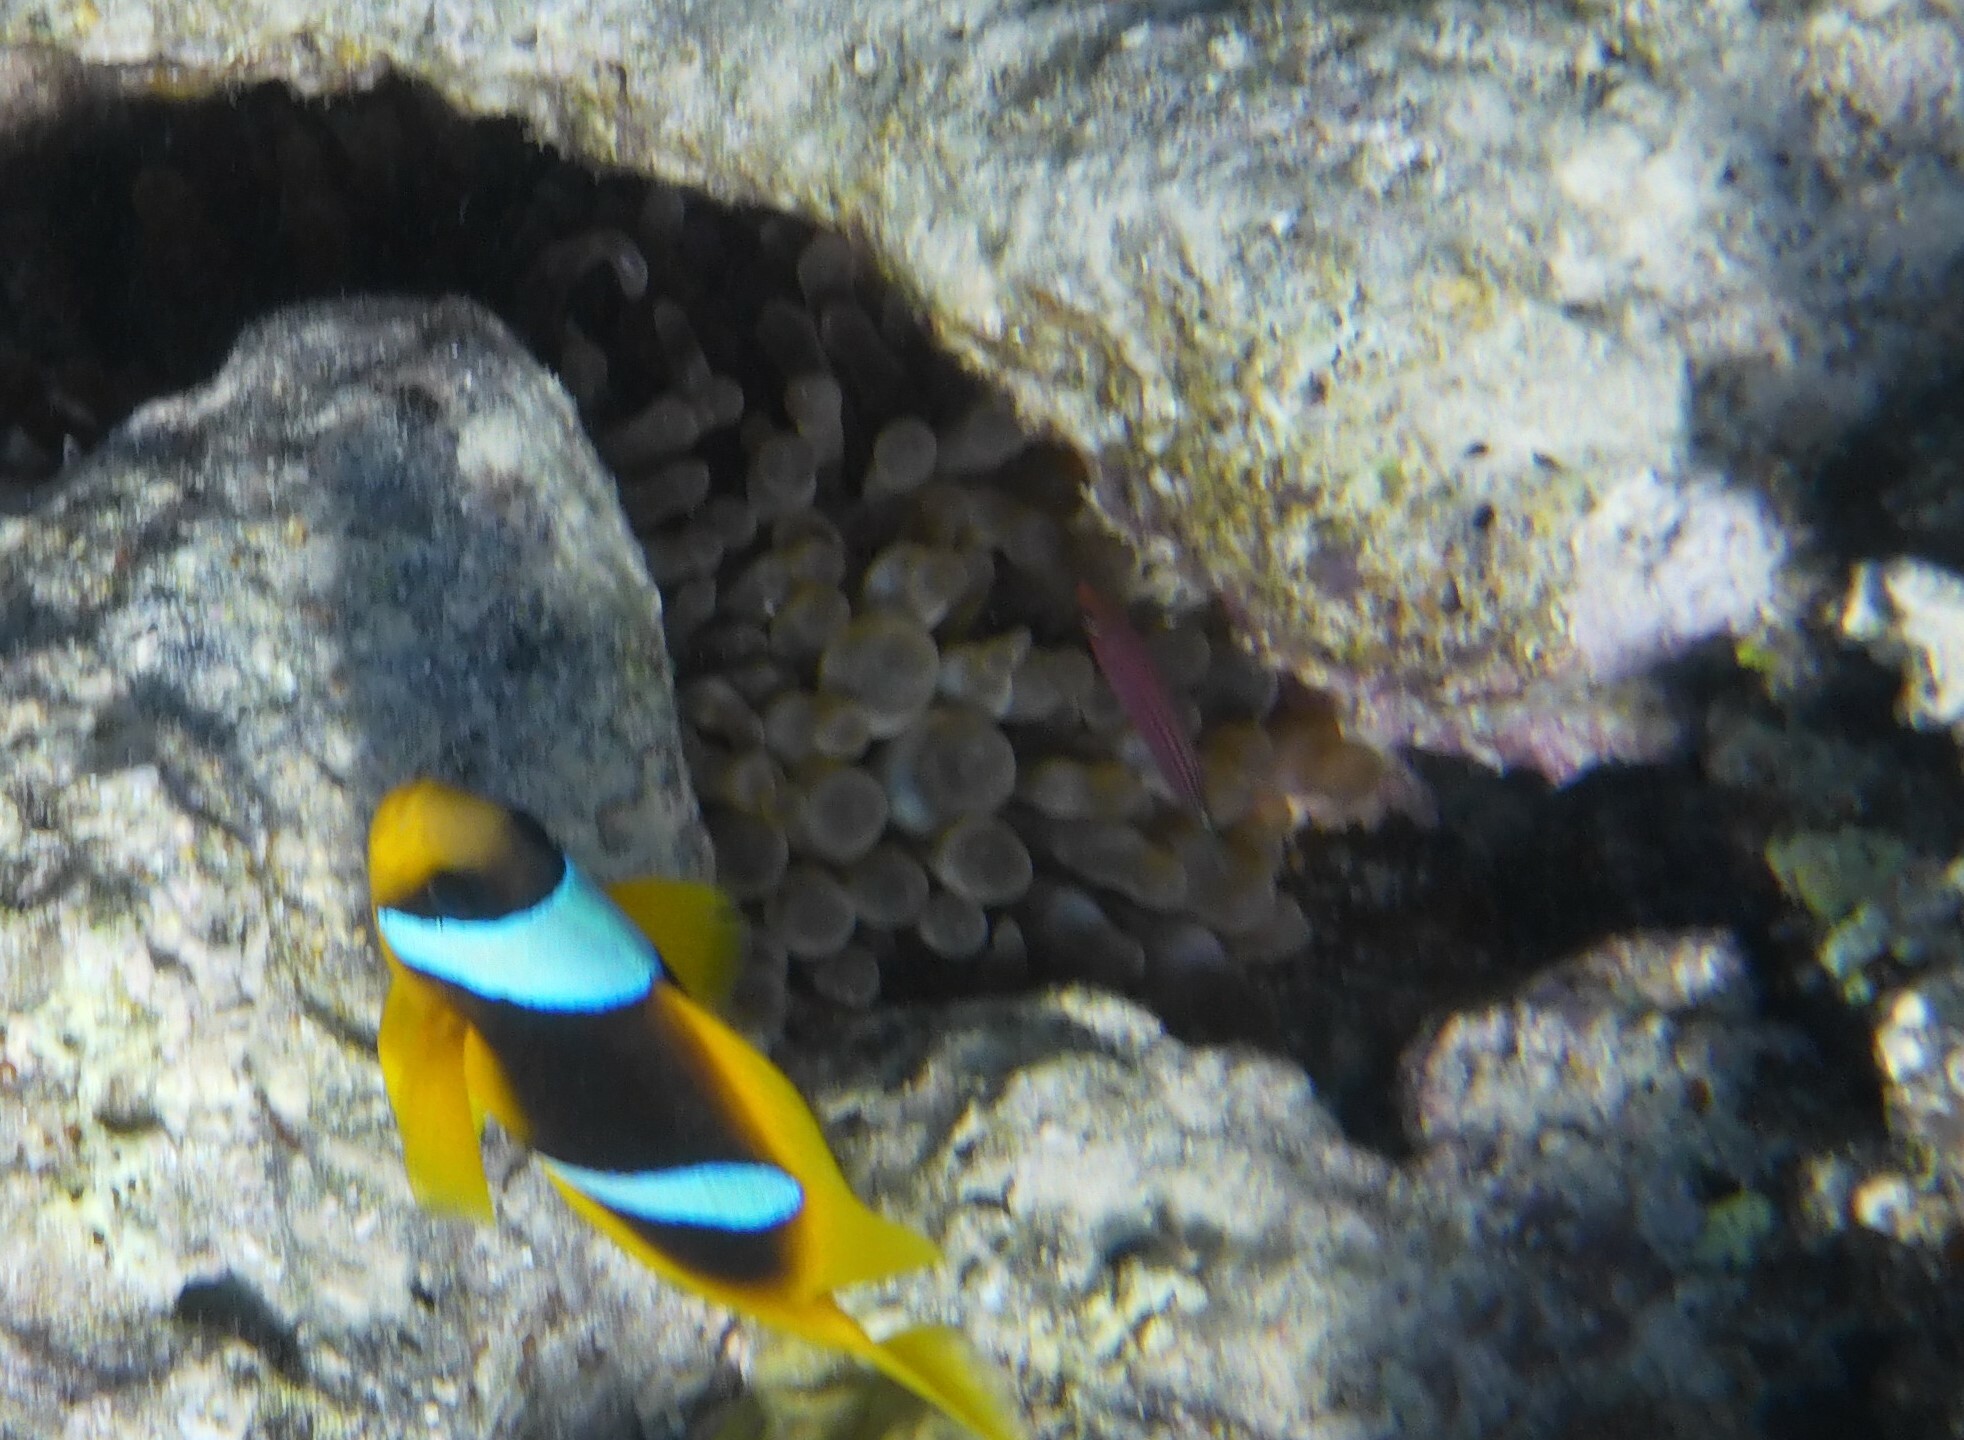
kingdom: Animalia
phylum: Cnidaria
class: Anthozoa
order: Actiniaria
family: Actiniidae
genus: Entacmaea
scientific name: Entacmaea quadricolor
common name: Bulb tentacle sea anemone
